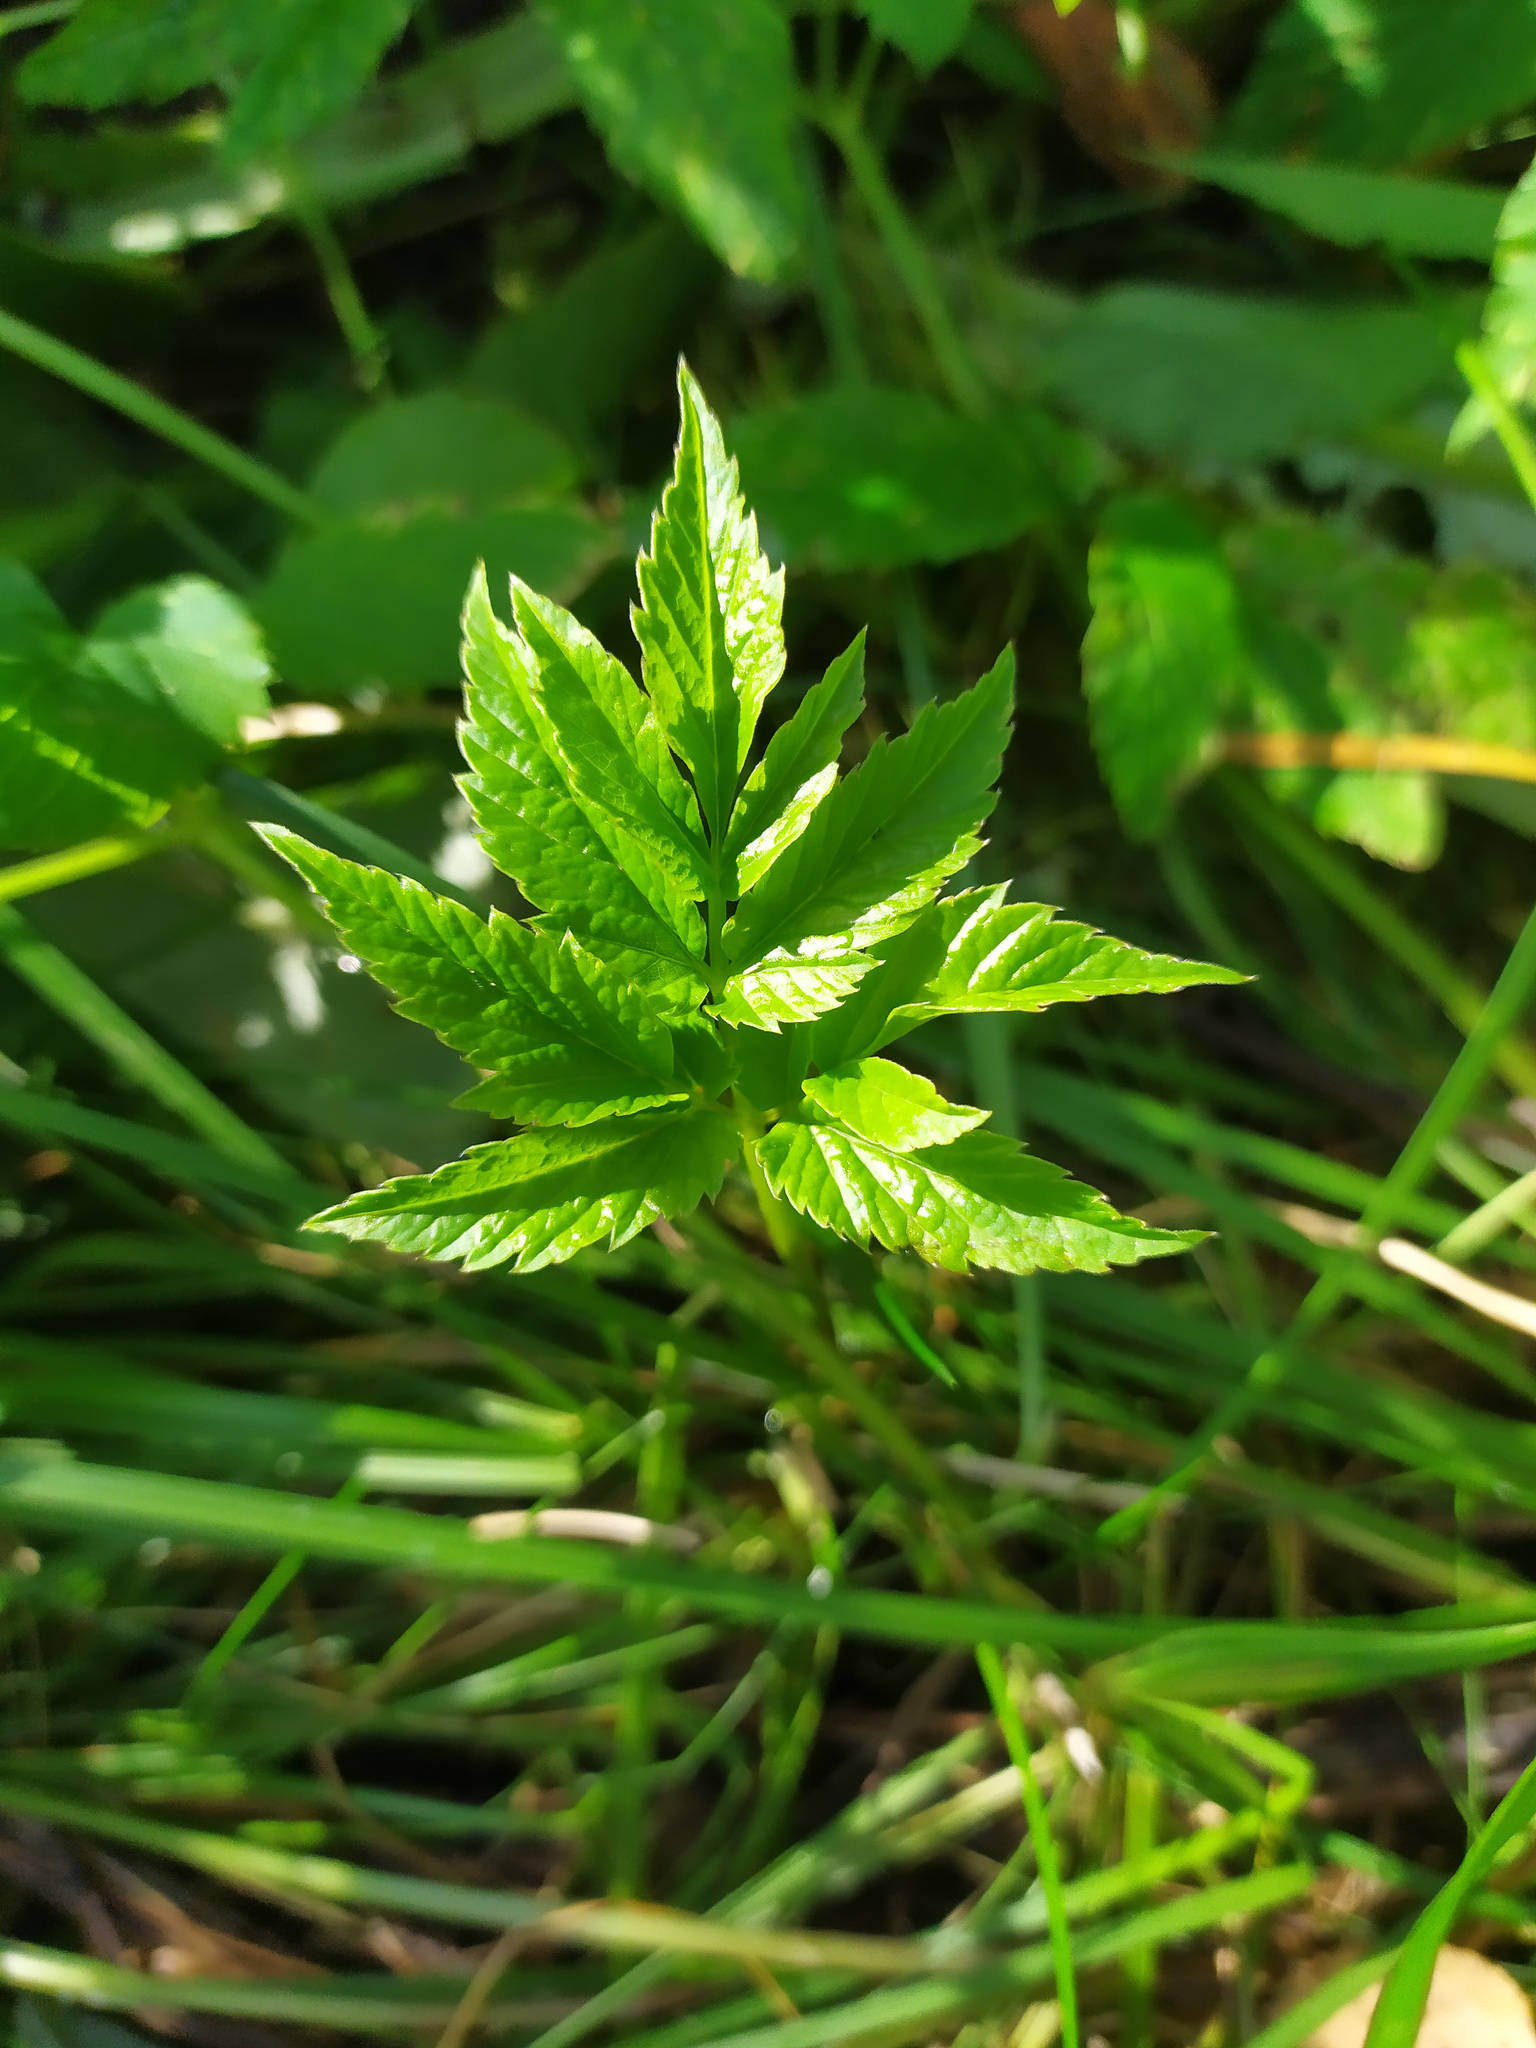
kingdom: Plantae
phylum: Tracheophyta
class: Magnoliopsida
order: Apiales
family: Apiaceae
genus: Aegopodium
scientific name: Aegopodium podagraria
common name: Ground-elder
